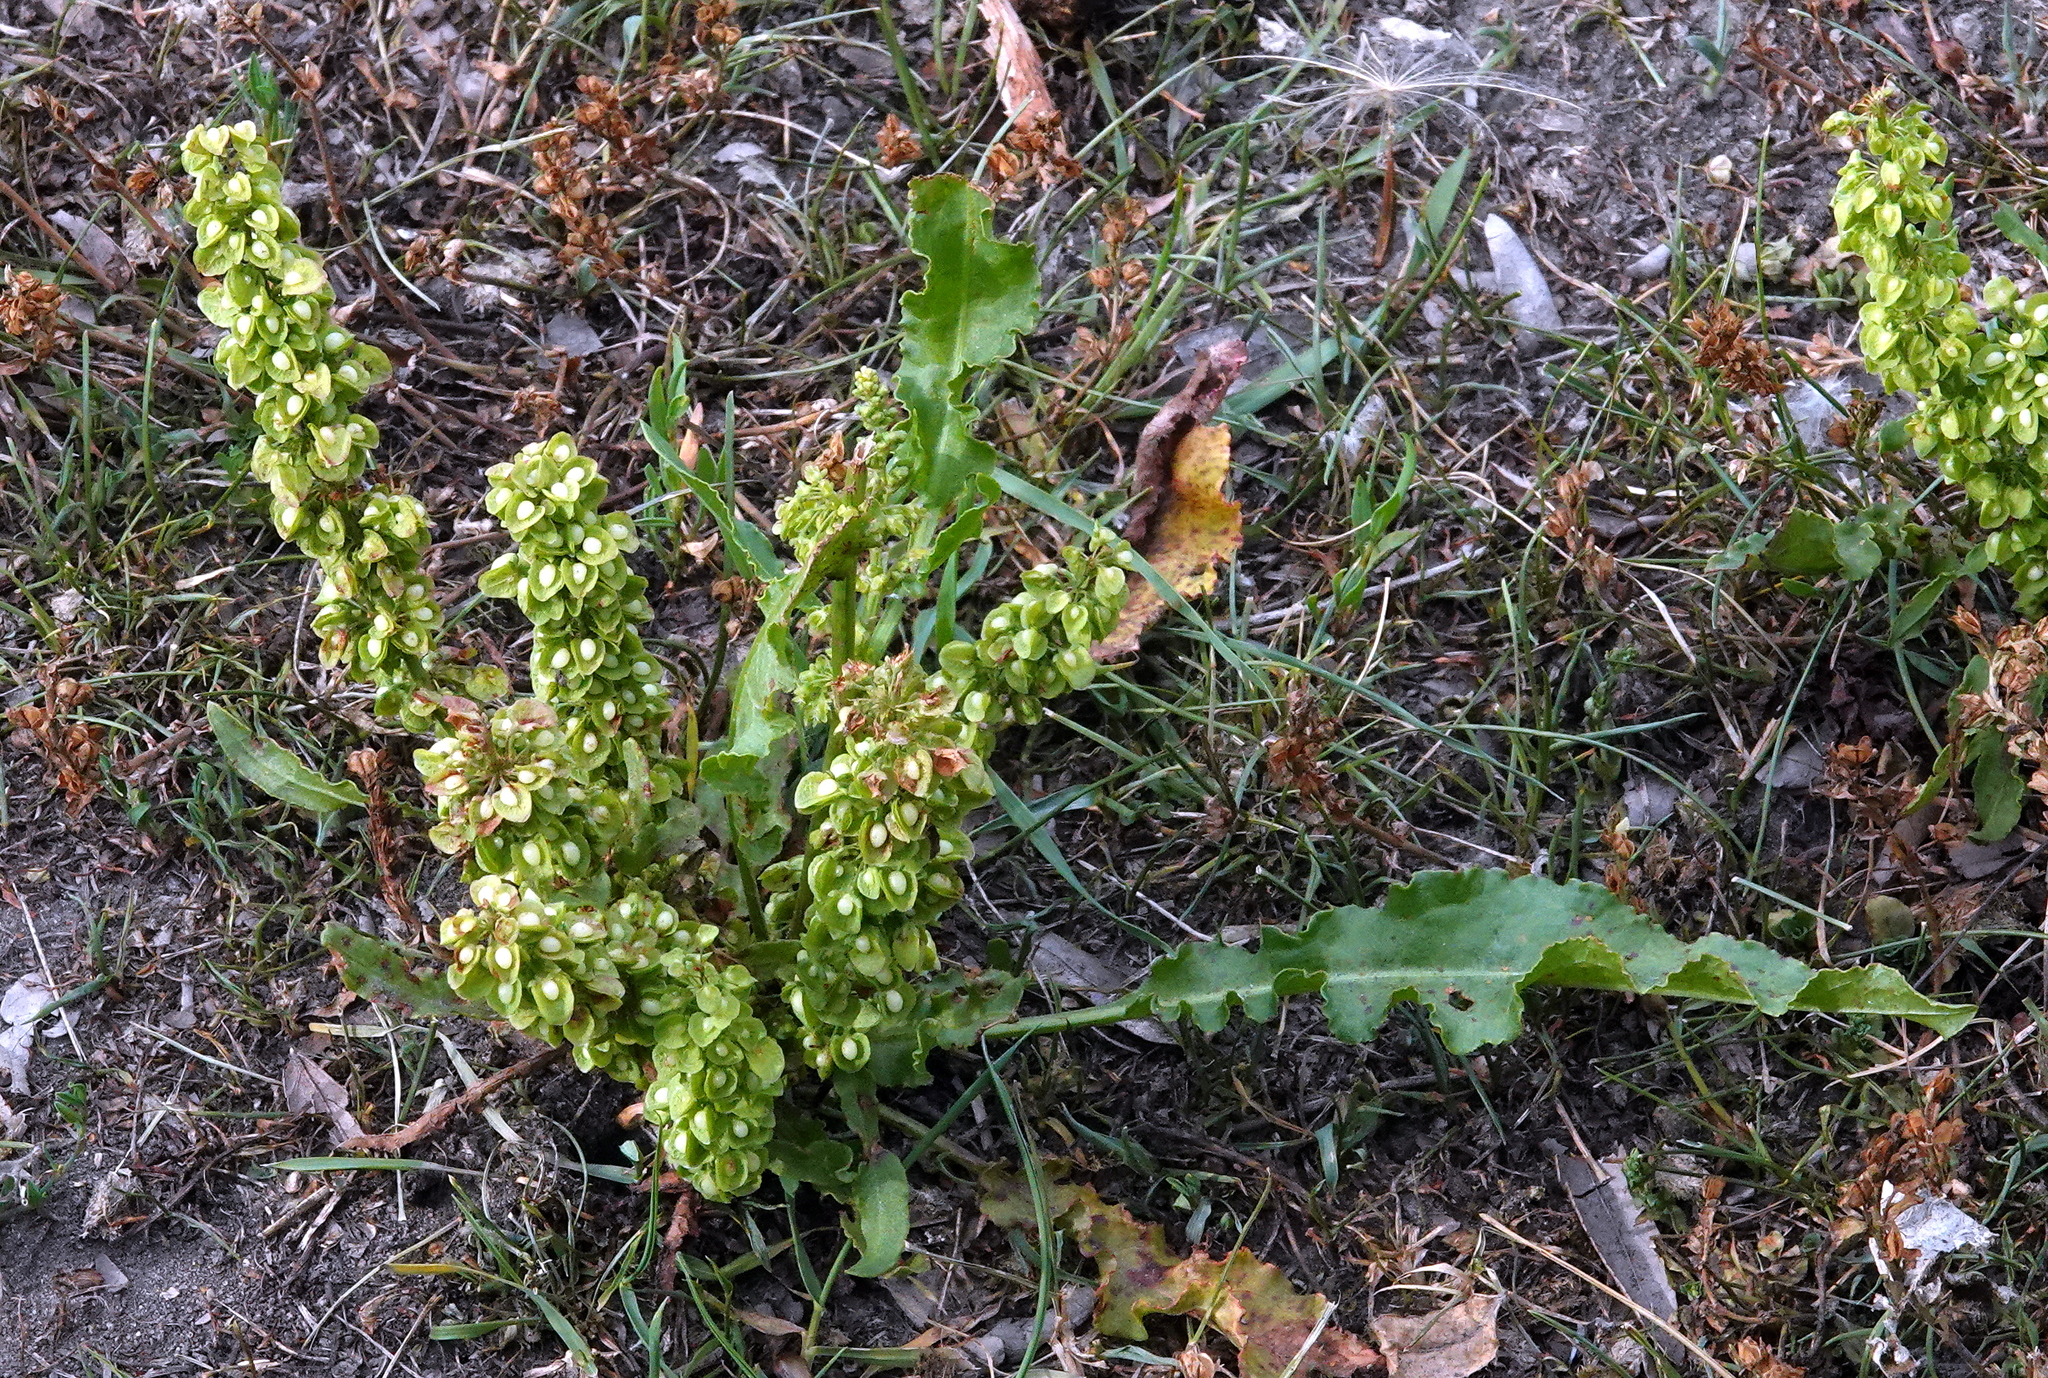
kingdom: Plantae
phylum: Tracheophyta
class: Magnoliopsida
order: Caryophyllales
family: Polygonaceae
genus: Rumex
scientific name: Rumex crispus
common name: Curled dock
